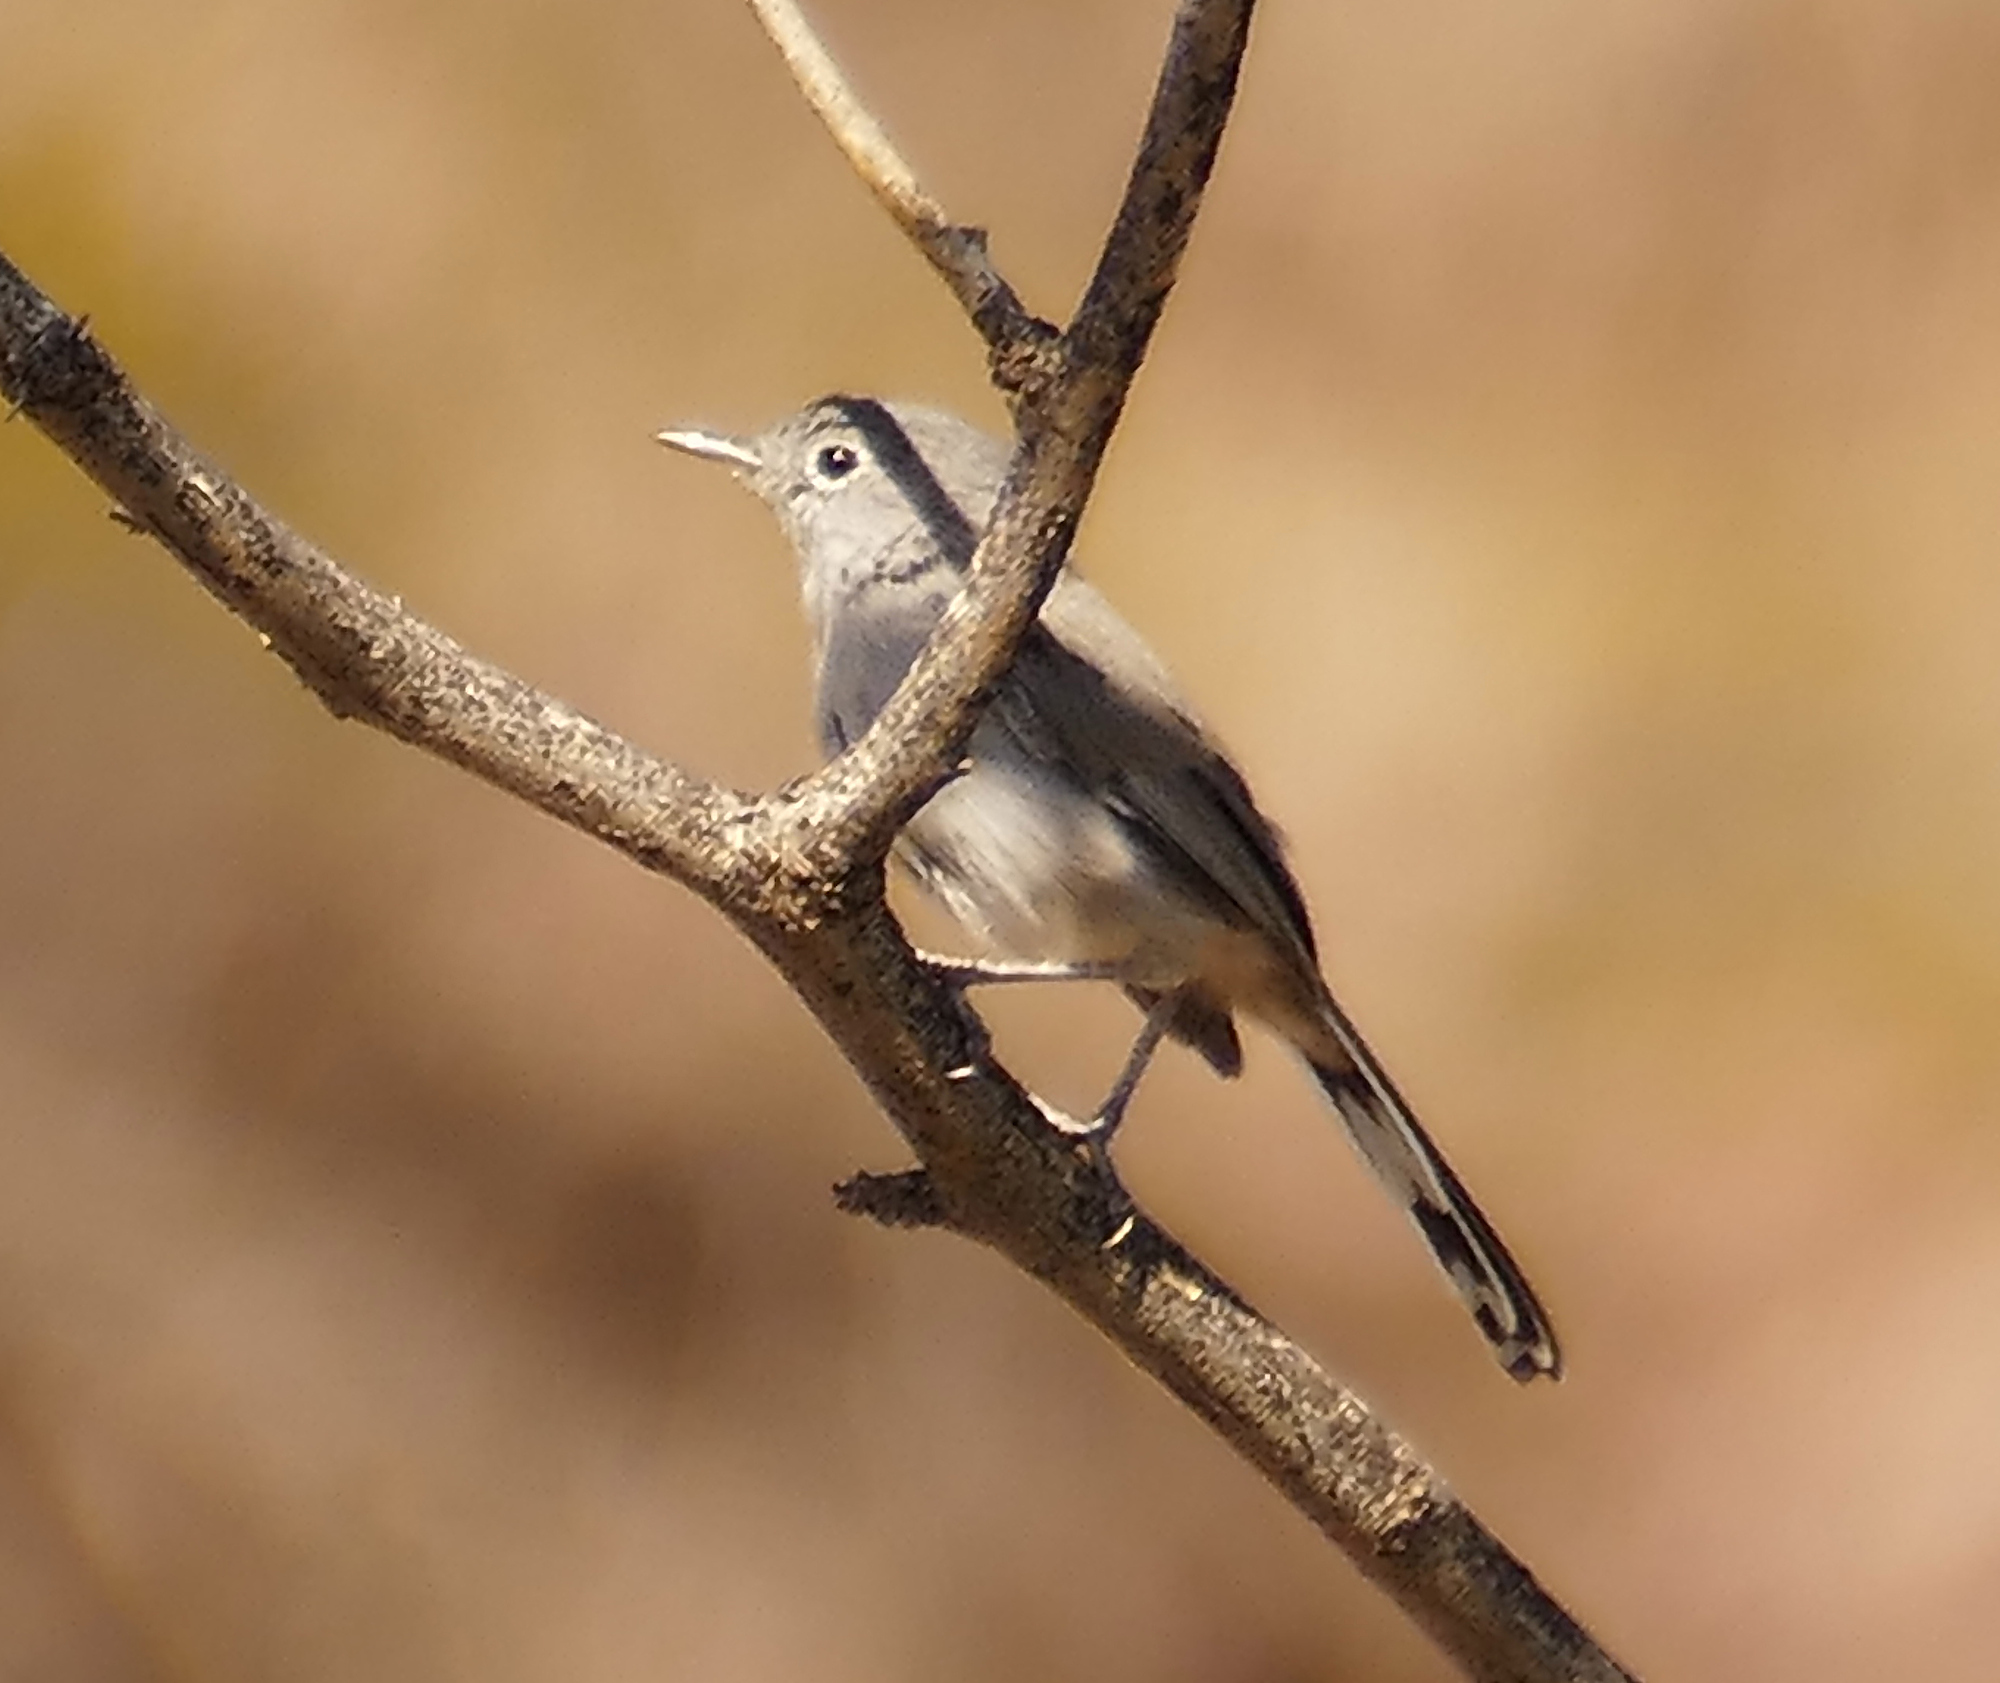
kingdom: Animalia
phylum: Chordata
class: Aves
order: Passeriformes
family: Polioptilidae
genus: Polioptila
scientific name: Polioptila melanura
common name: Black-tailed gnatcatcher
